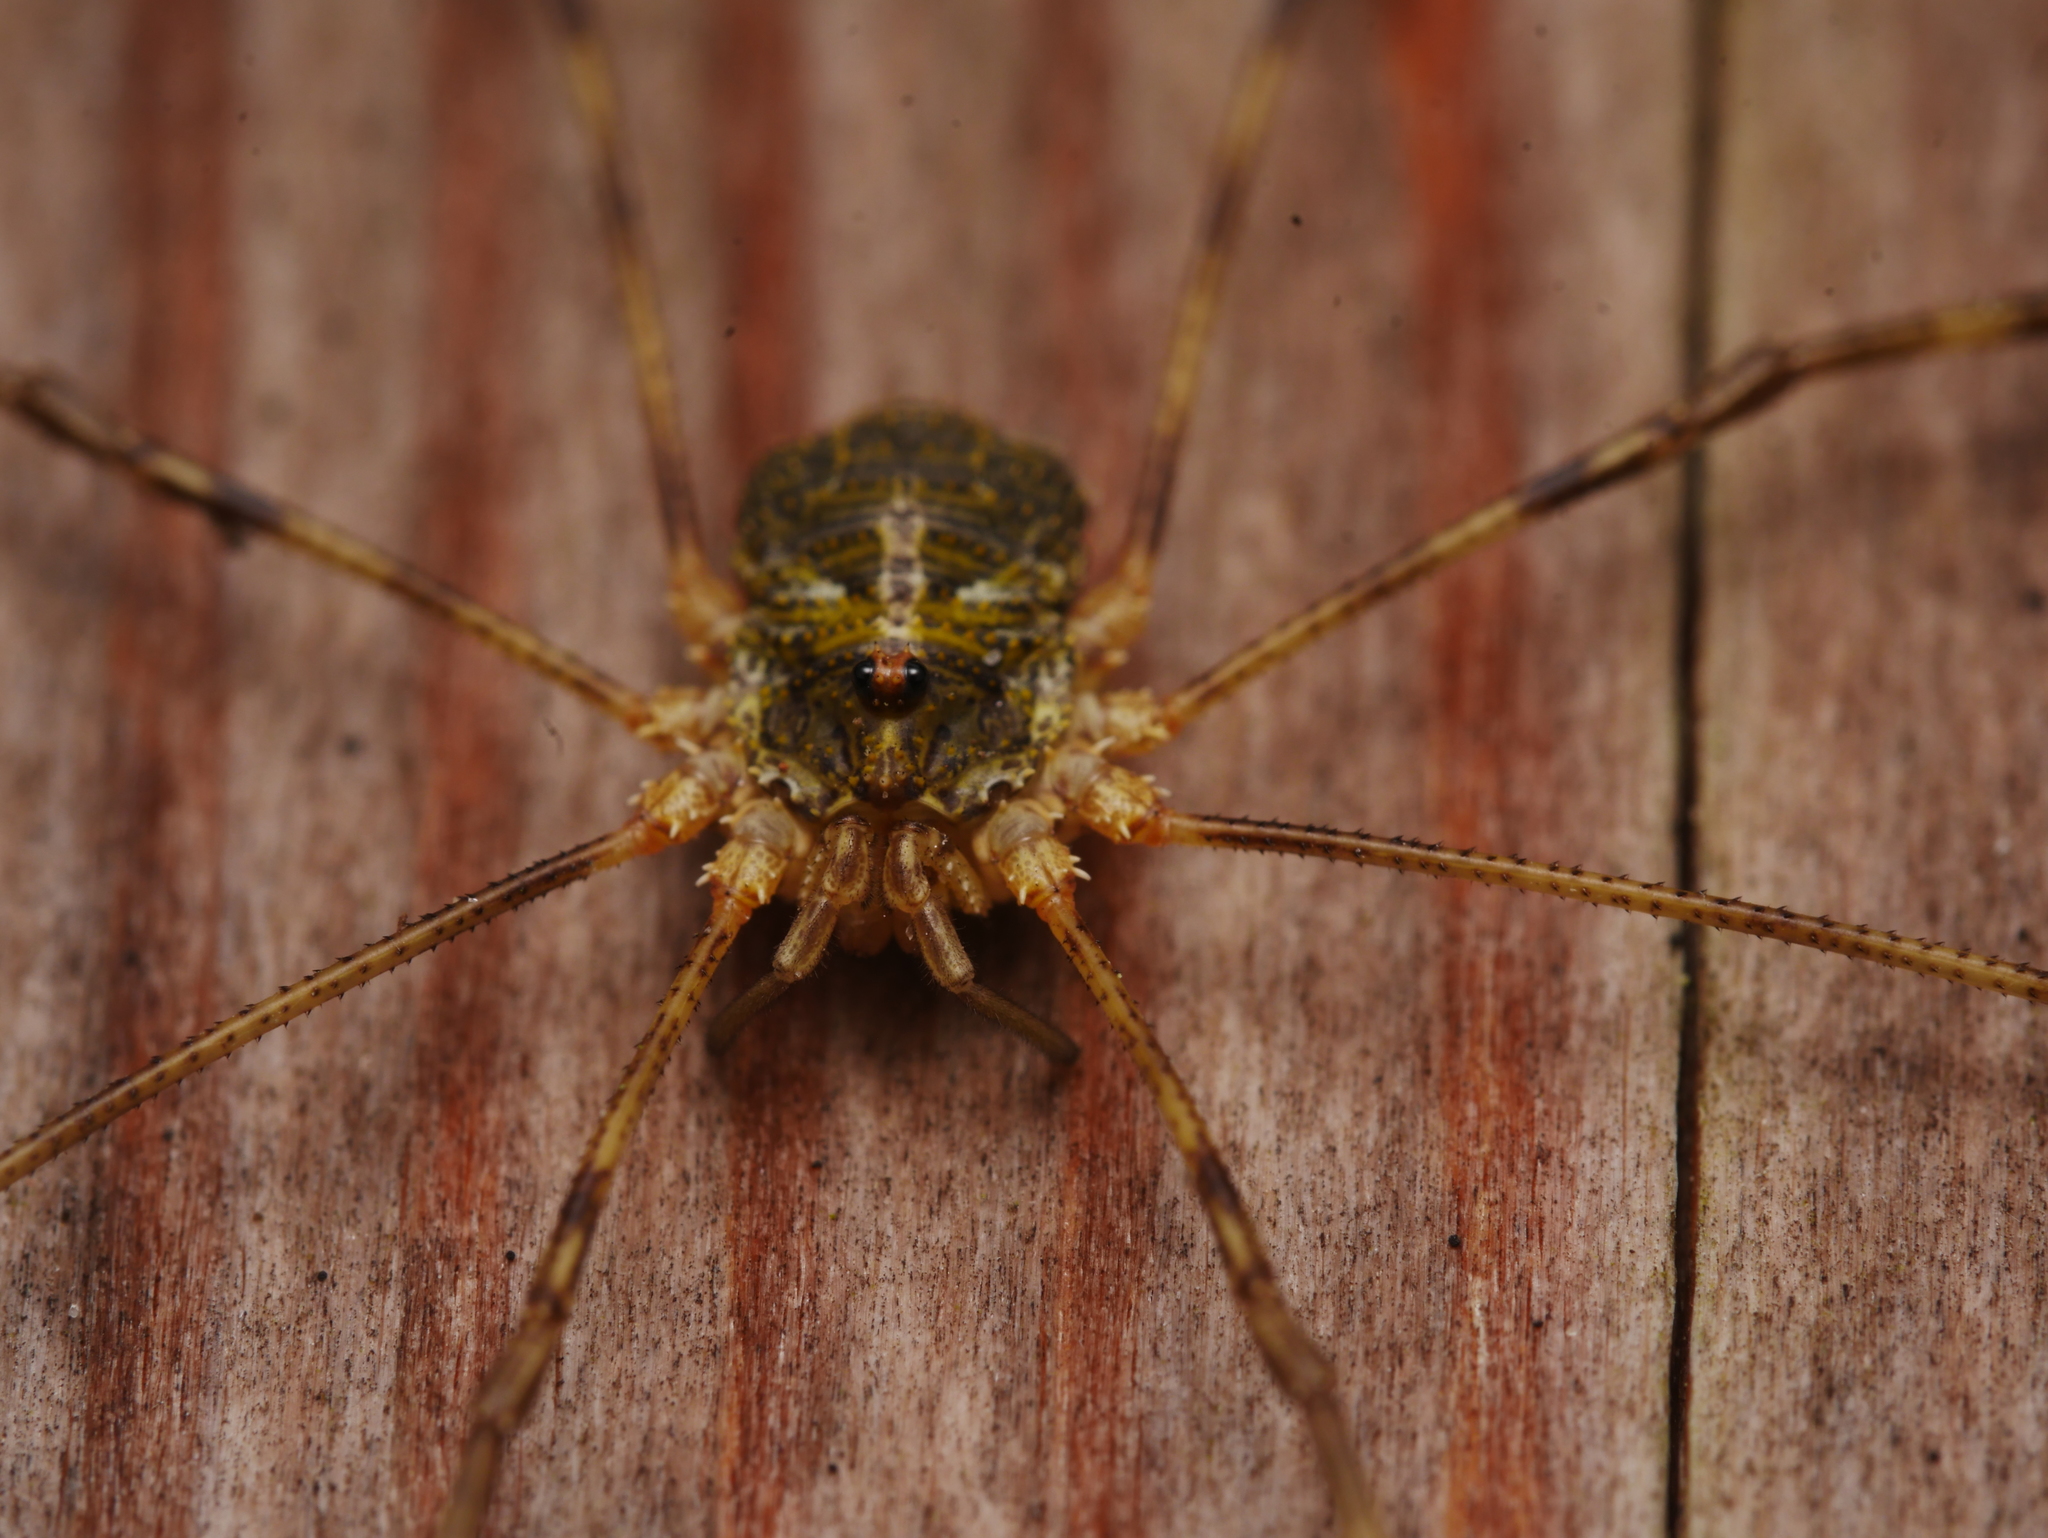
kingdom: Animalia
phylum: Arthropoda
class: Arachnida
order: Opiliones
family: Phalangiidae
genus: Lacinius
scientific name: Lacinius dentiger
